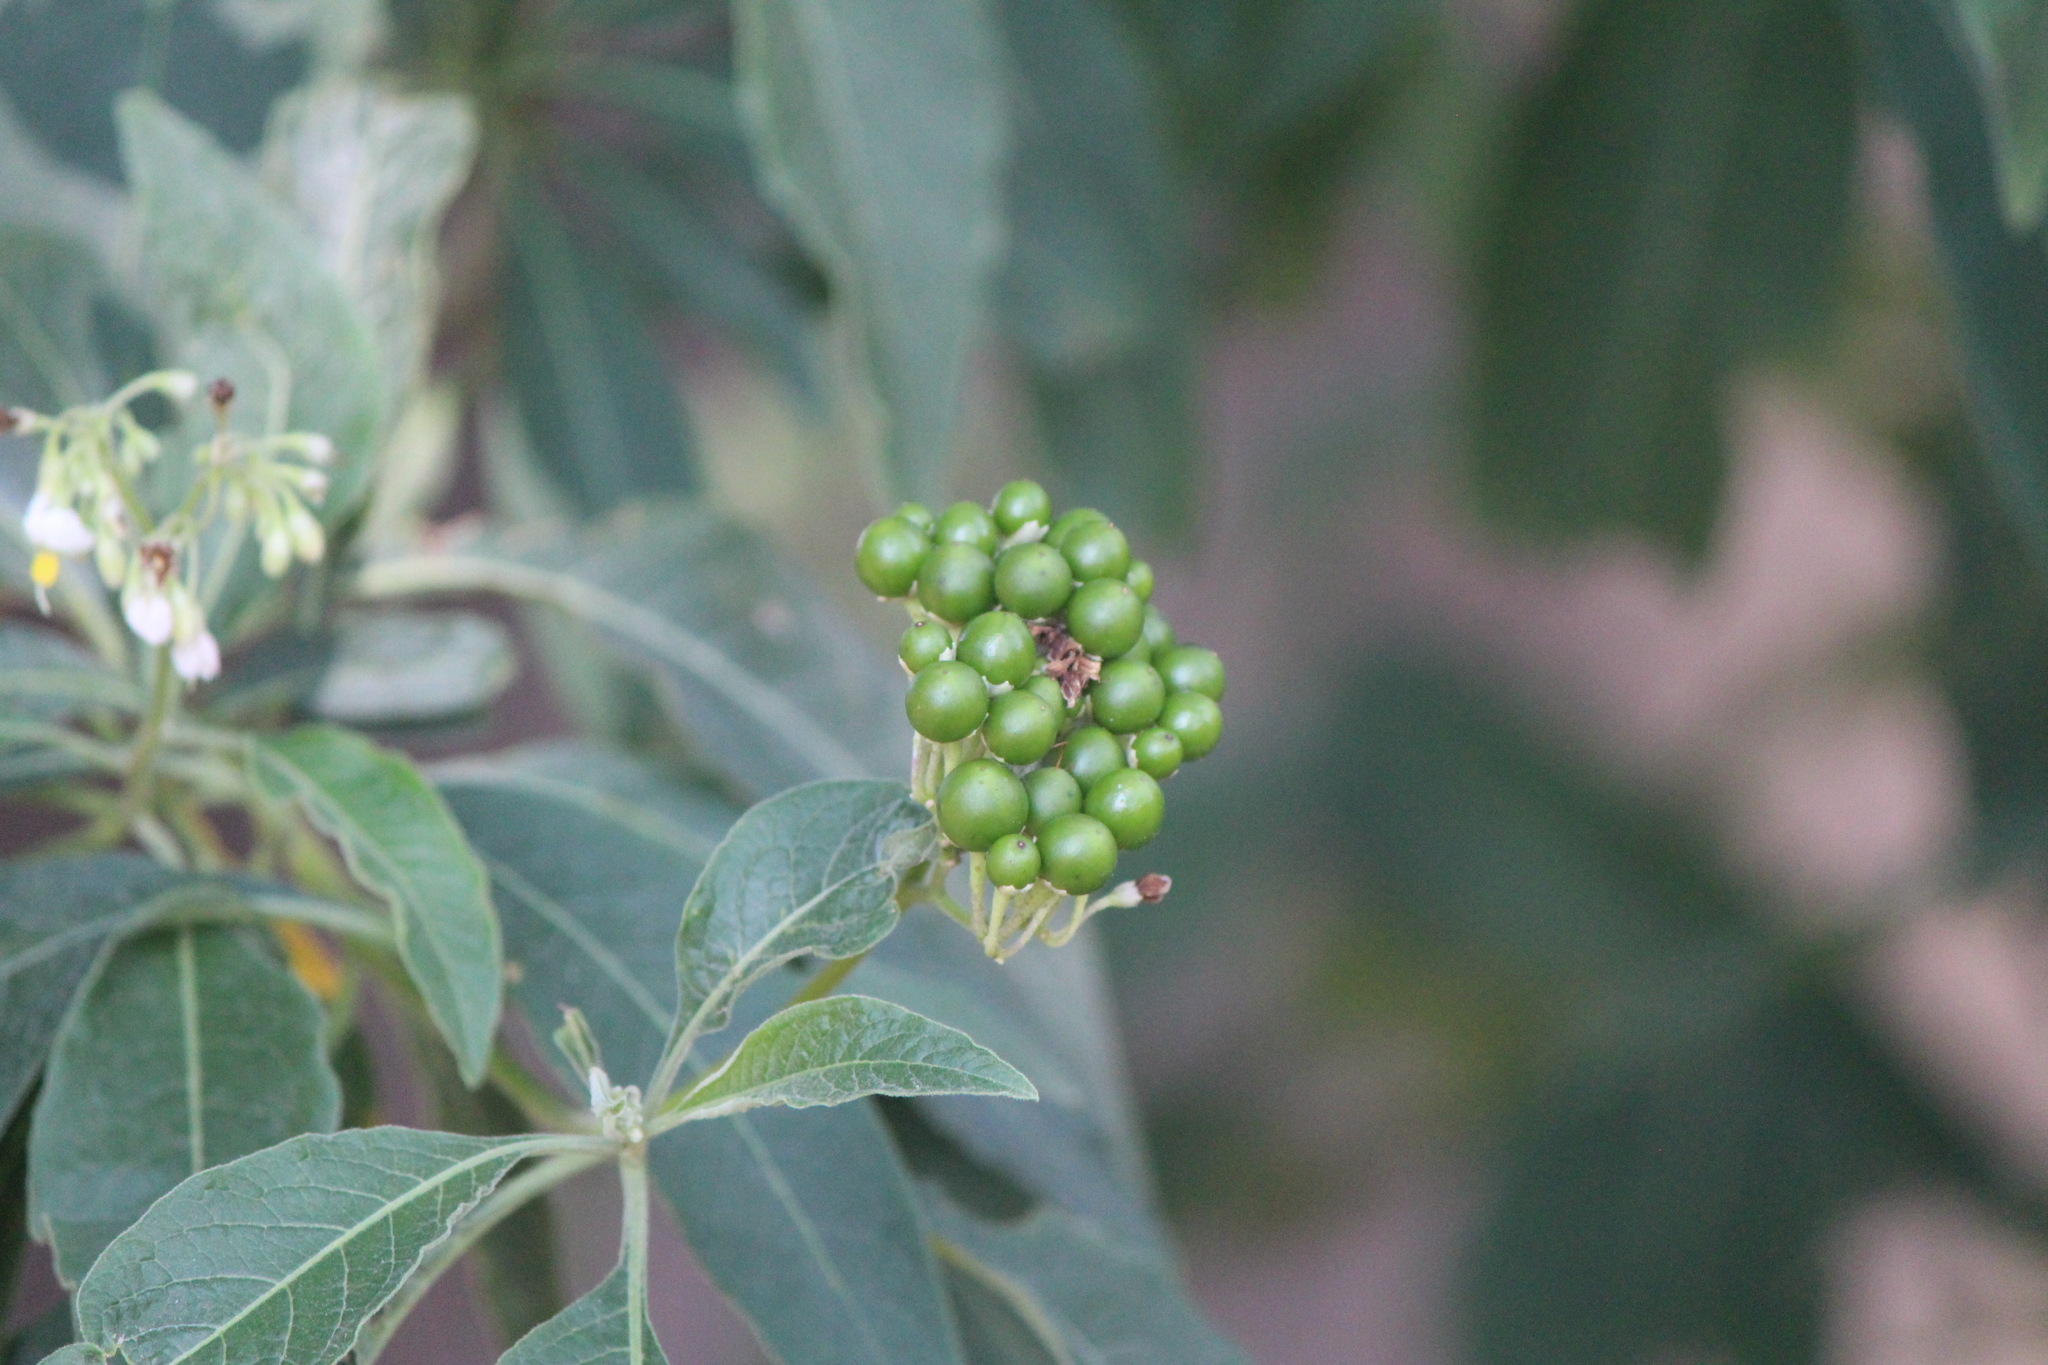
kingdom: Plantae
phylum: Tracheophyta
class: Magnoliopsida
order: Solanales
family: Solanaceae
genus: Solanum
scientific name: Solanum pubigerum
